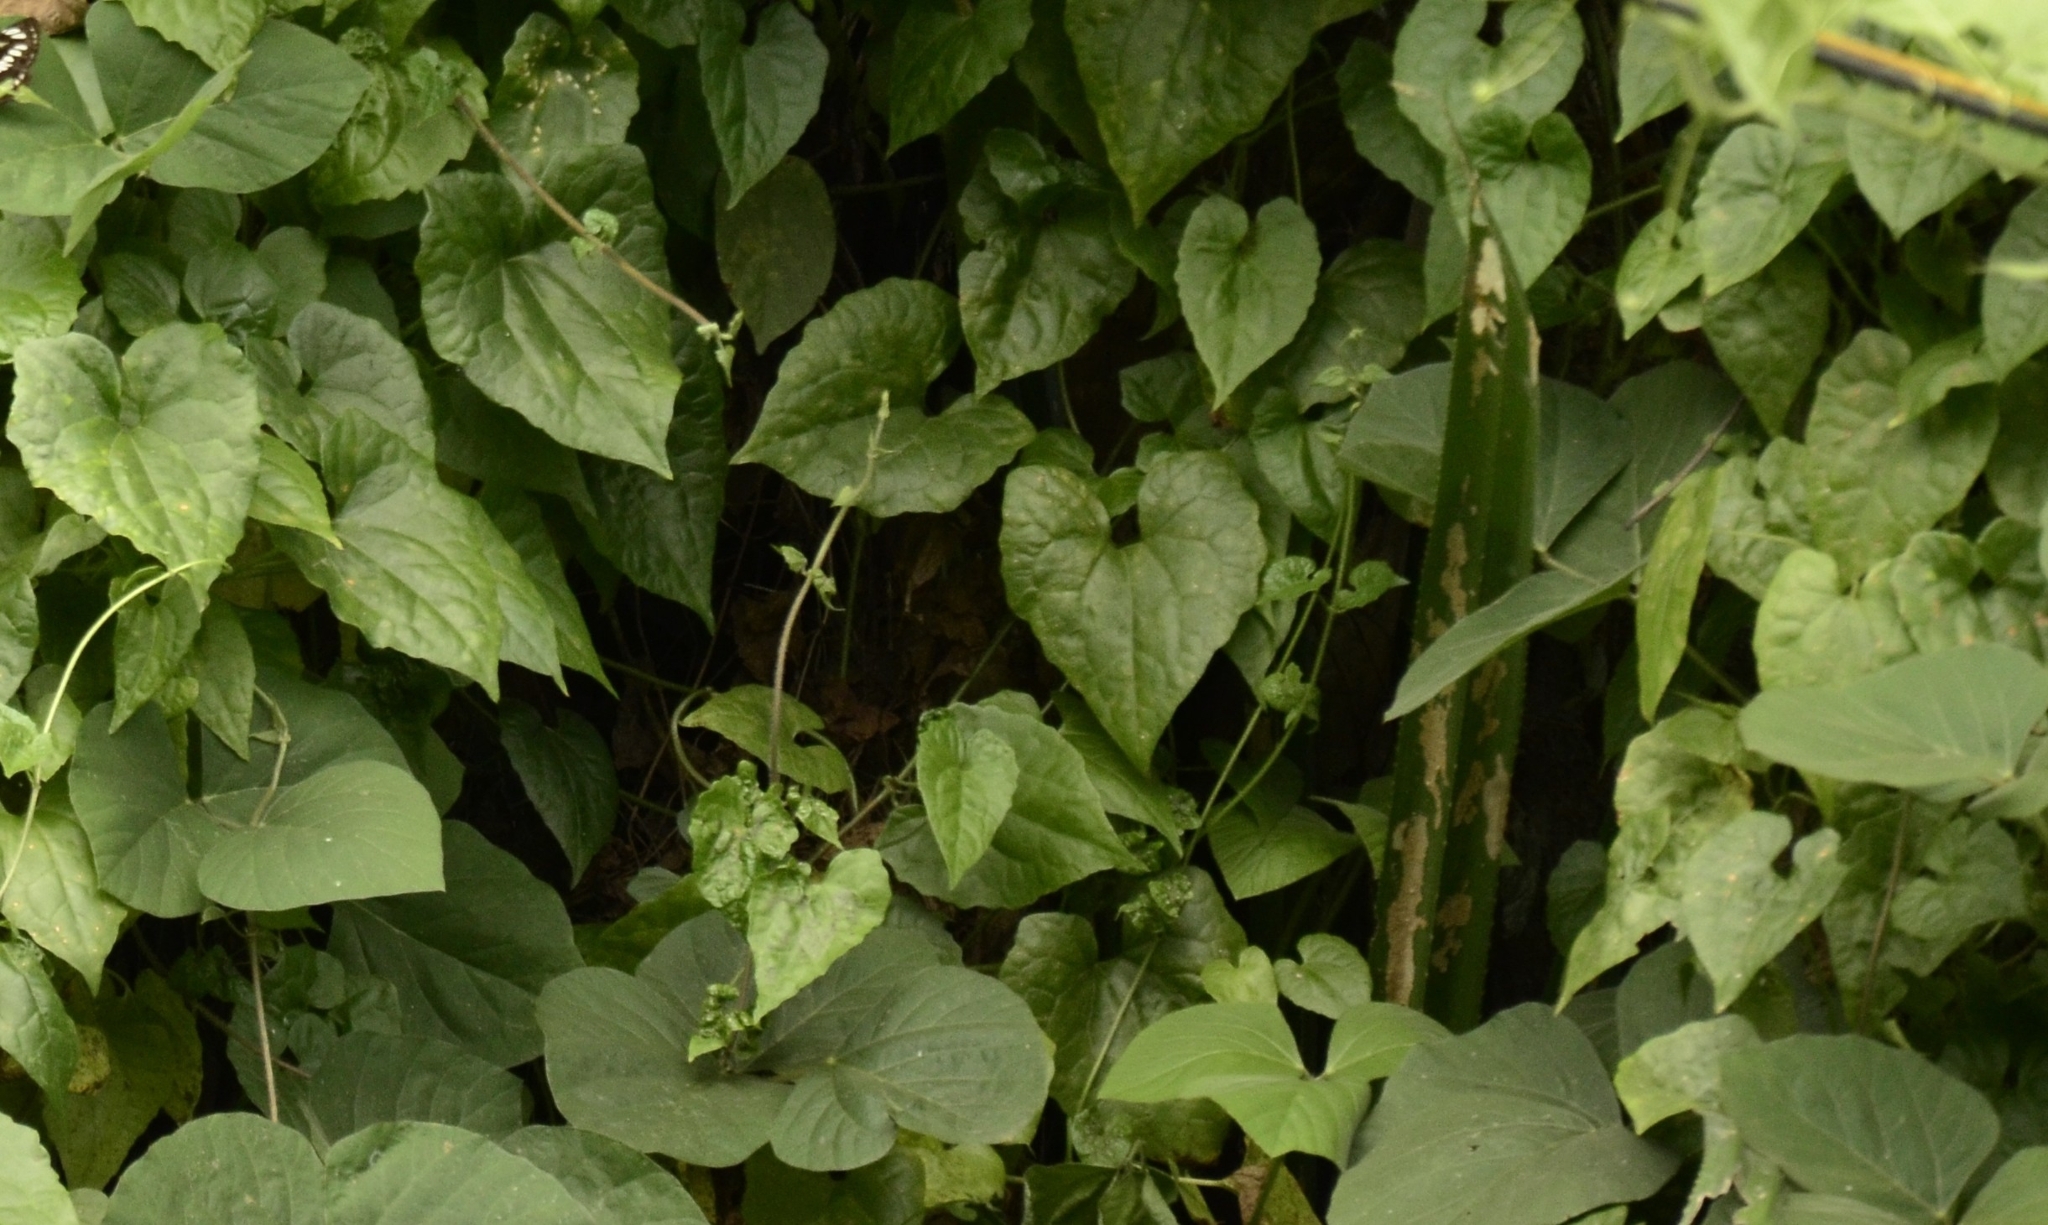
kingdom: Plantae
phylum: Tracheophyta
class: Magnoliopsida
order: Asterales
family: Asteraceae
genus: Mikania
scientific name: Mikania micrantha
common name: Mile-a-minute
